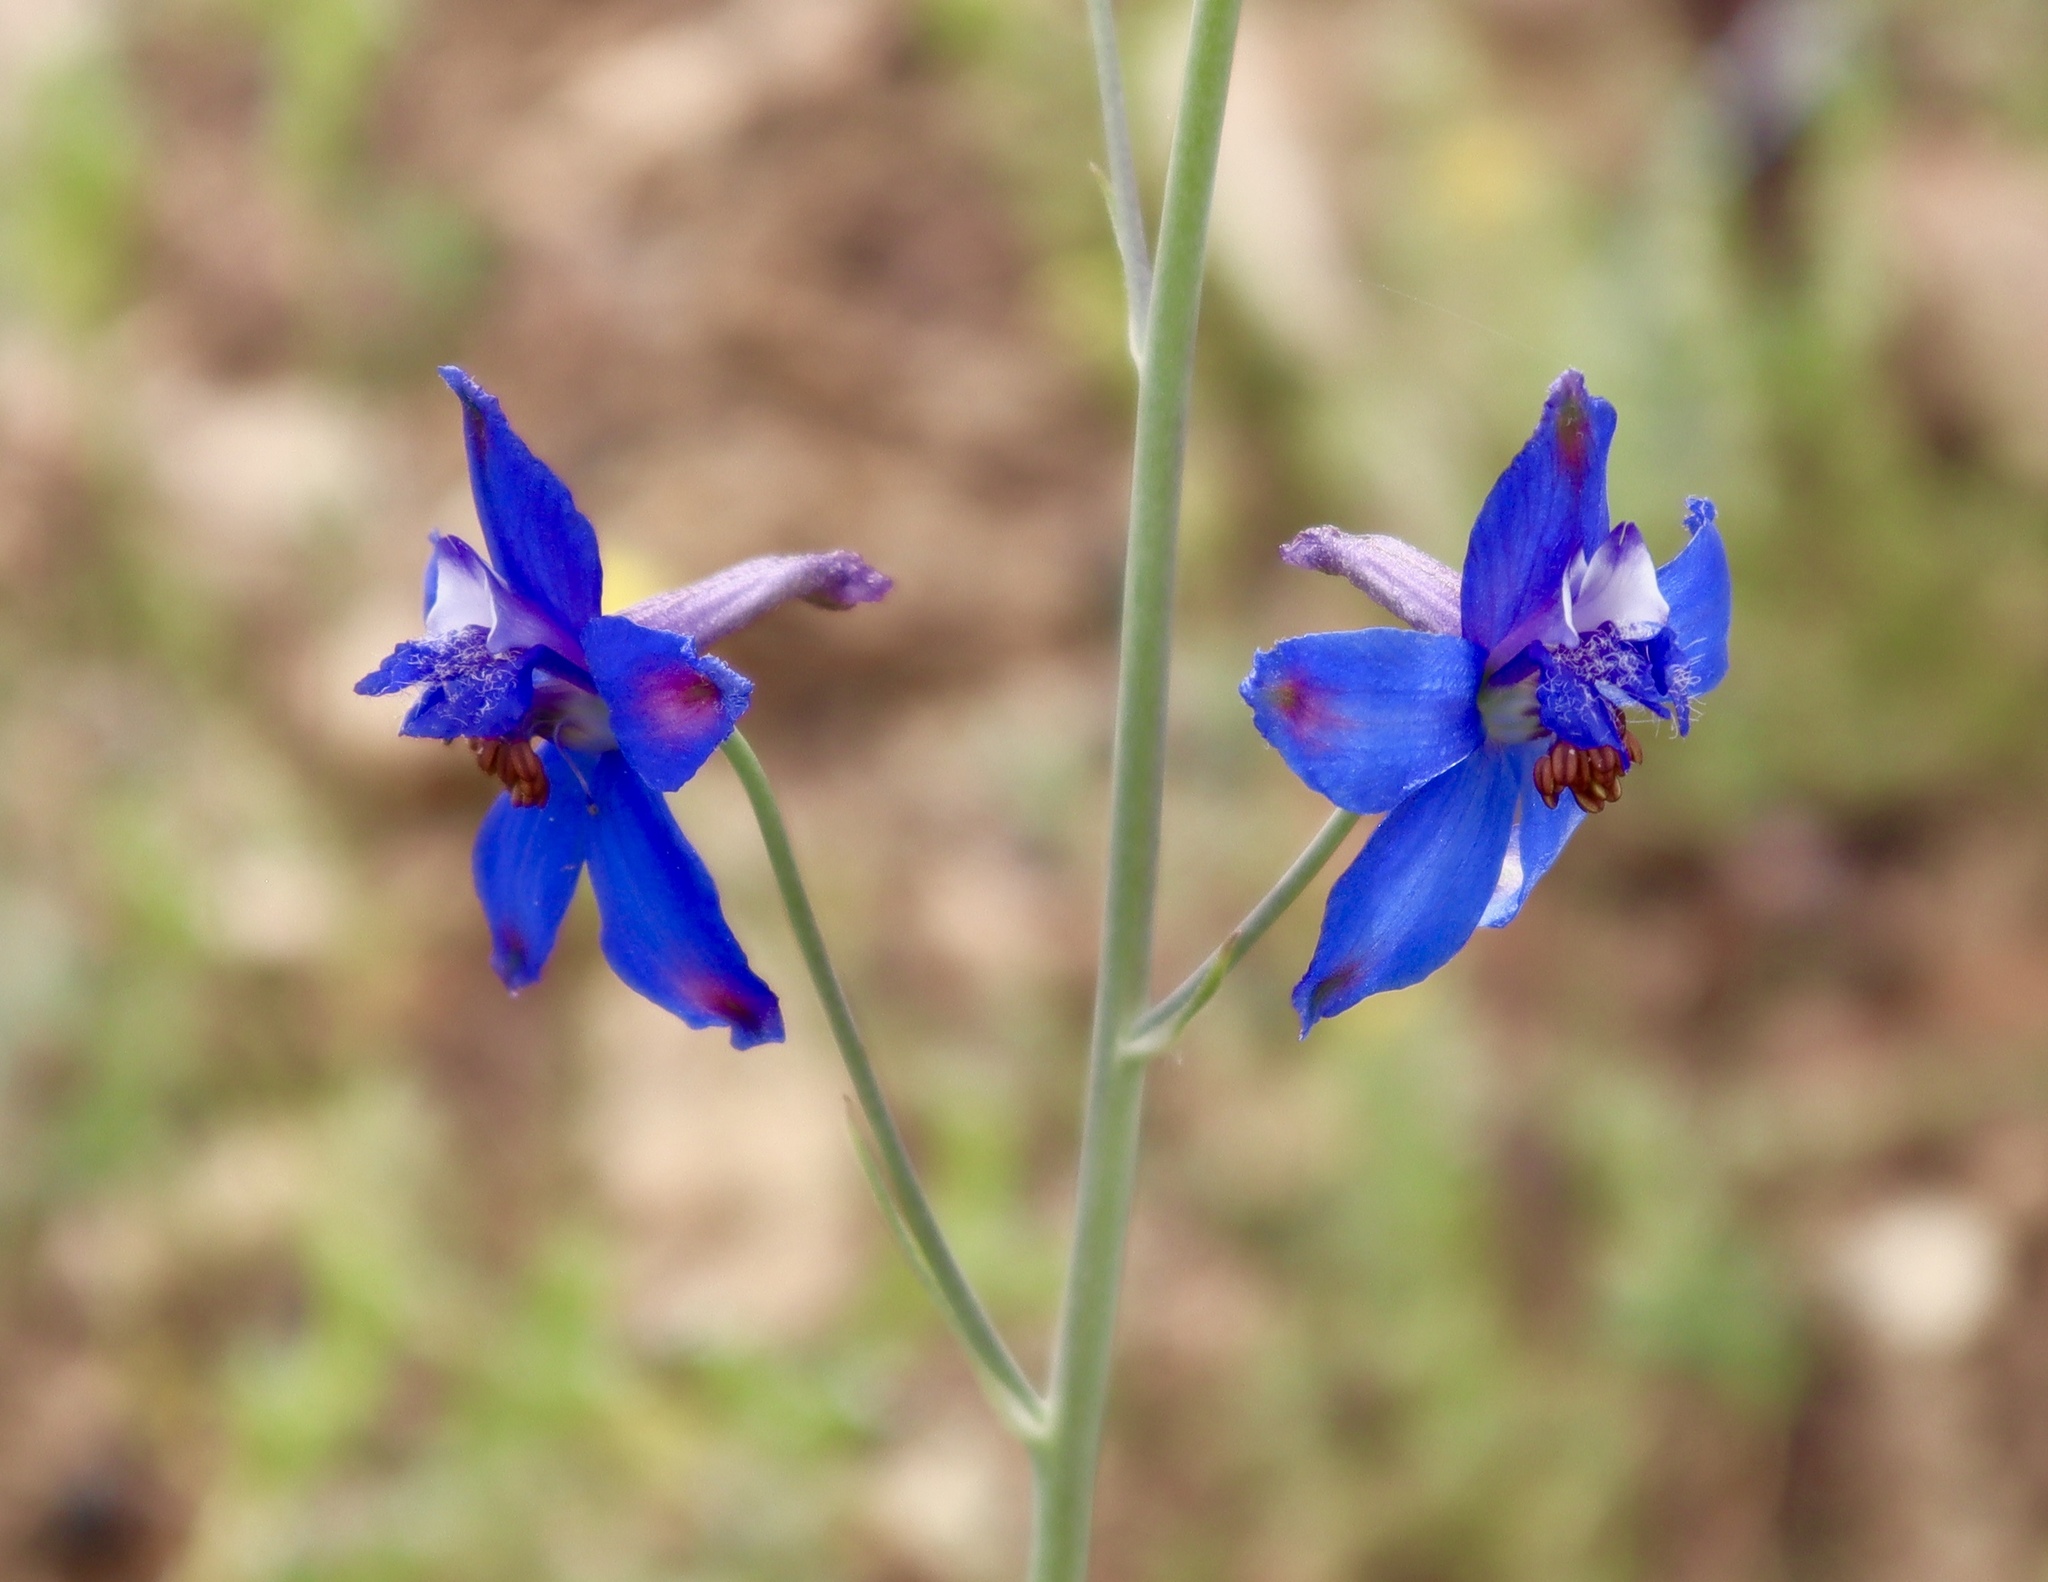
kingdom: Plantae
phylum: Tracheophyta
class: Magnoliopsida
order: Ranunculales
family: Ranunculaceae
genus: Delphinium
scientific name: Delphinium scaposum
